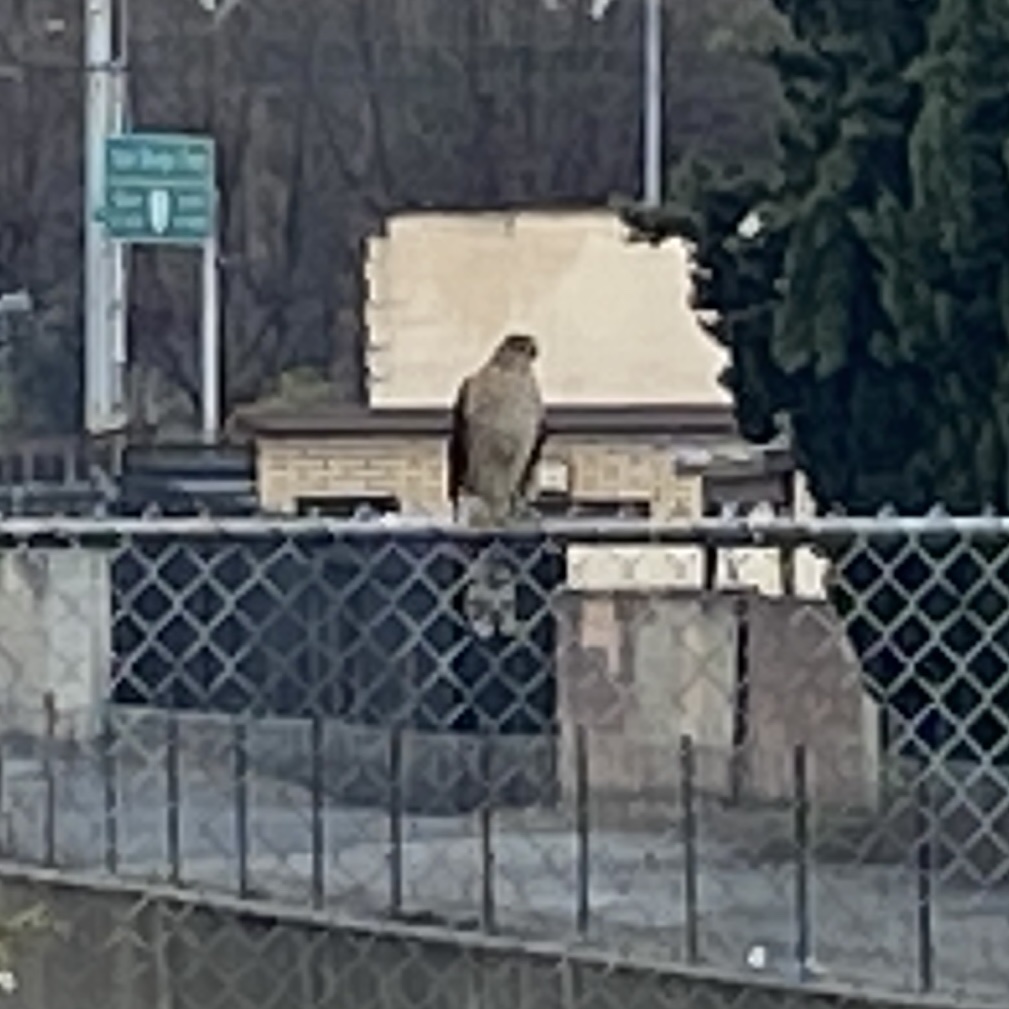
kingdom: Animalia
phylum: Chordata
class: Aves
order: Accipitriformes
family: Accipitridae
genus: Accipiter
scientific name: Accipiter cooperii
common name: Cooper's hawk
